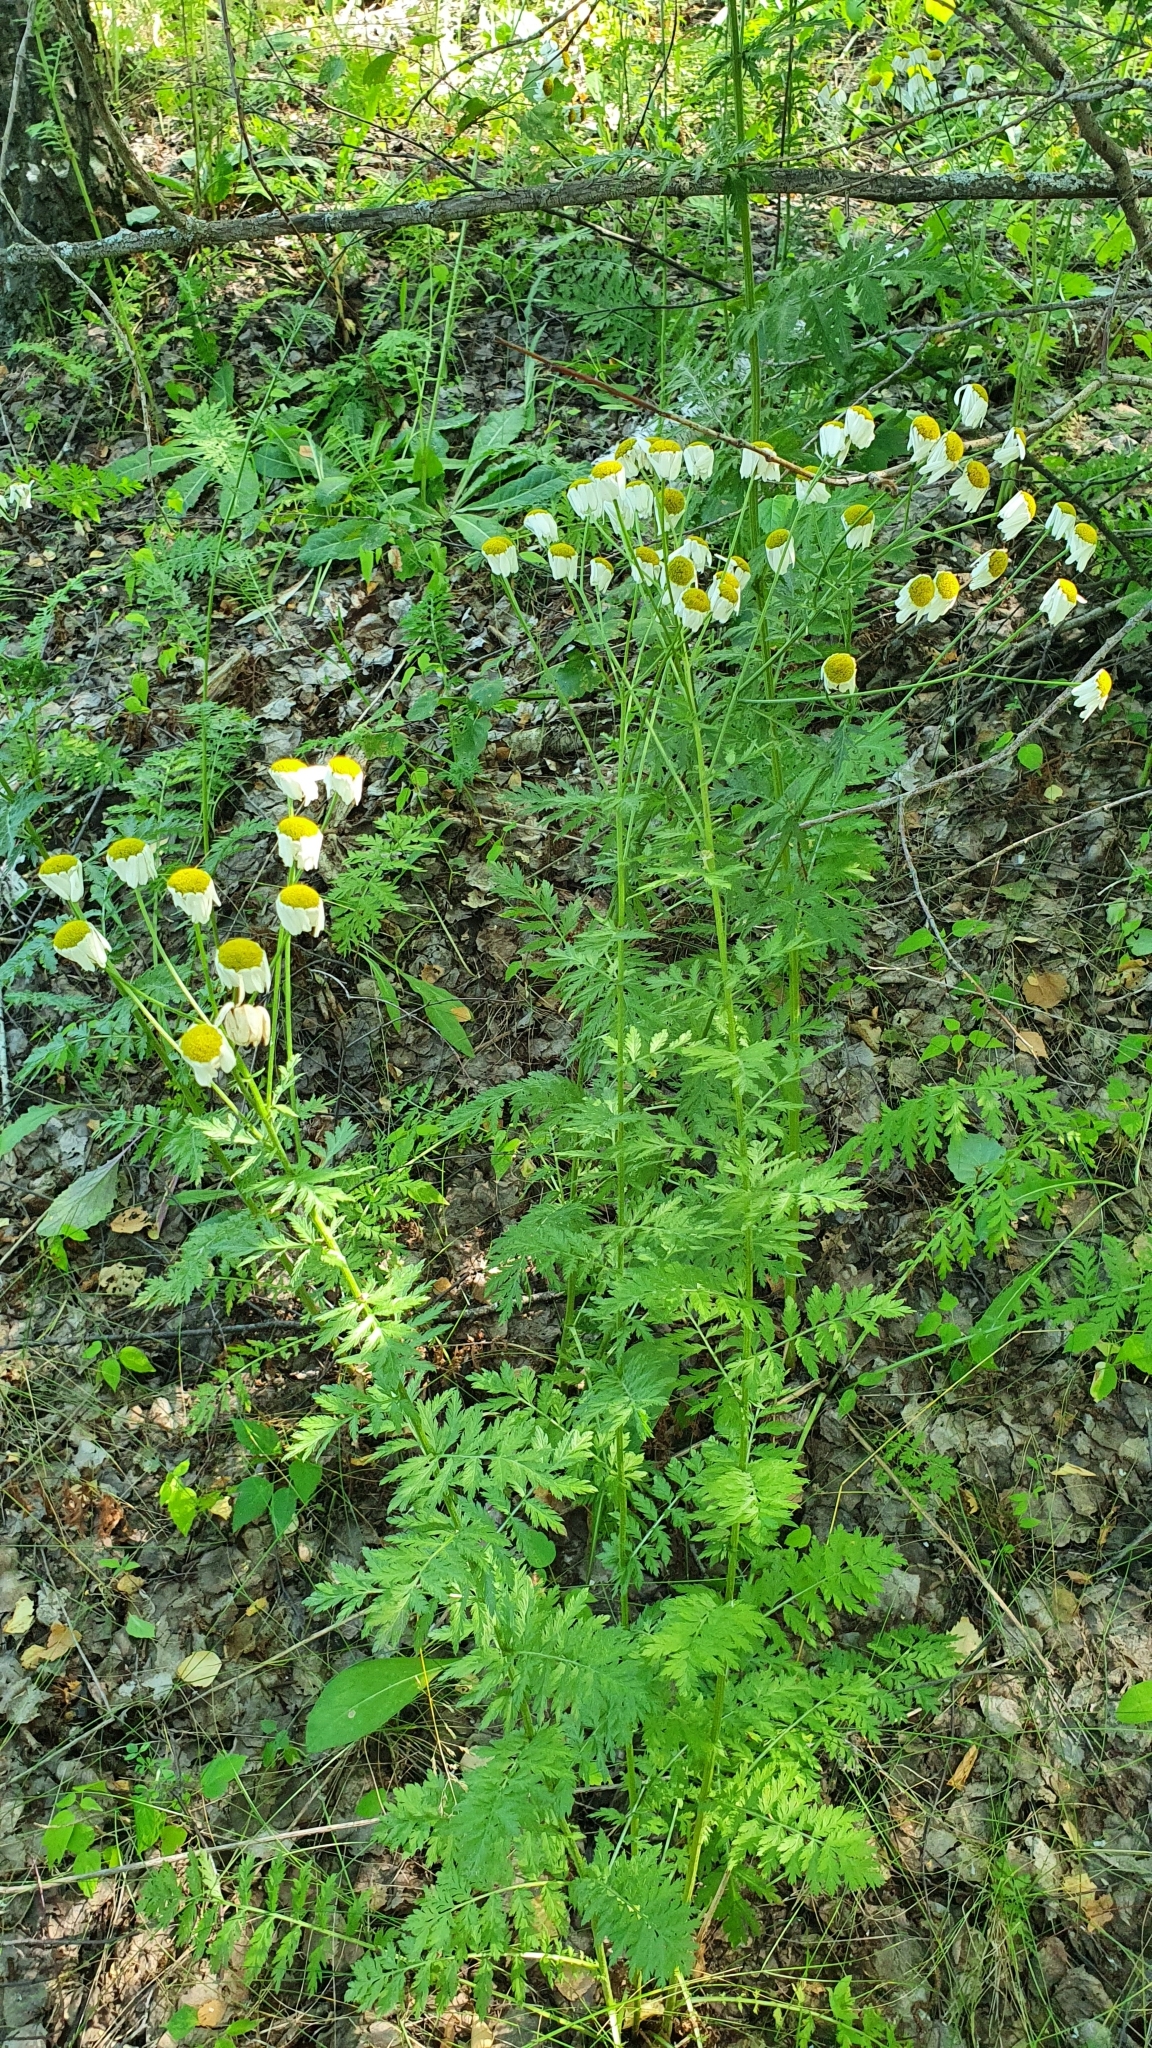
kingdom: Plantae
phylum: Tracheophyta
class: Magnoliopsida
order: Asterales
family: Asteraceae
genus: Tanacetum
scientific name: Tanacetum corymbosum
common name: Scentless feverfew
